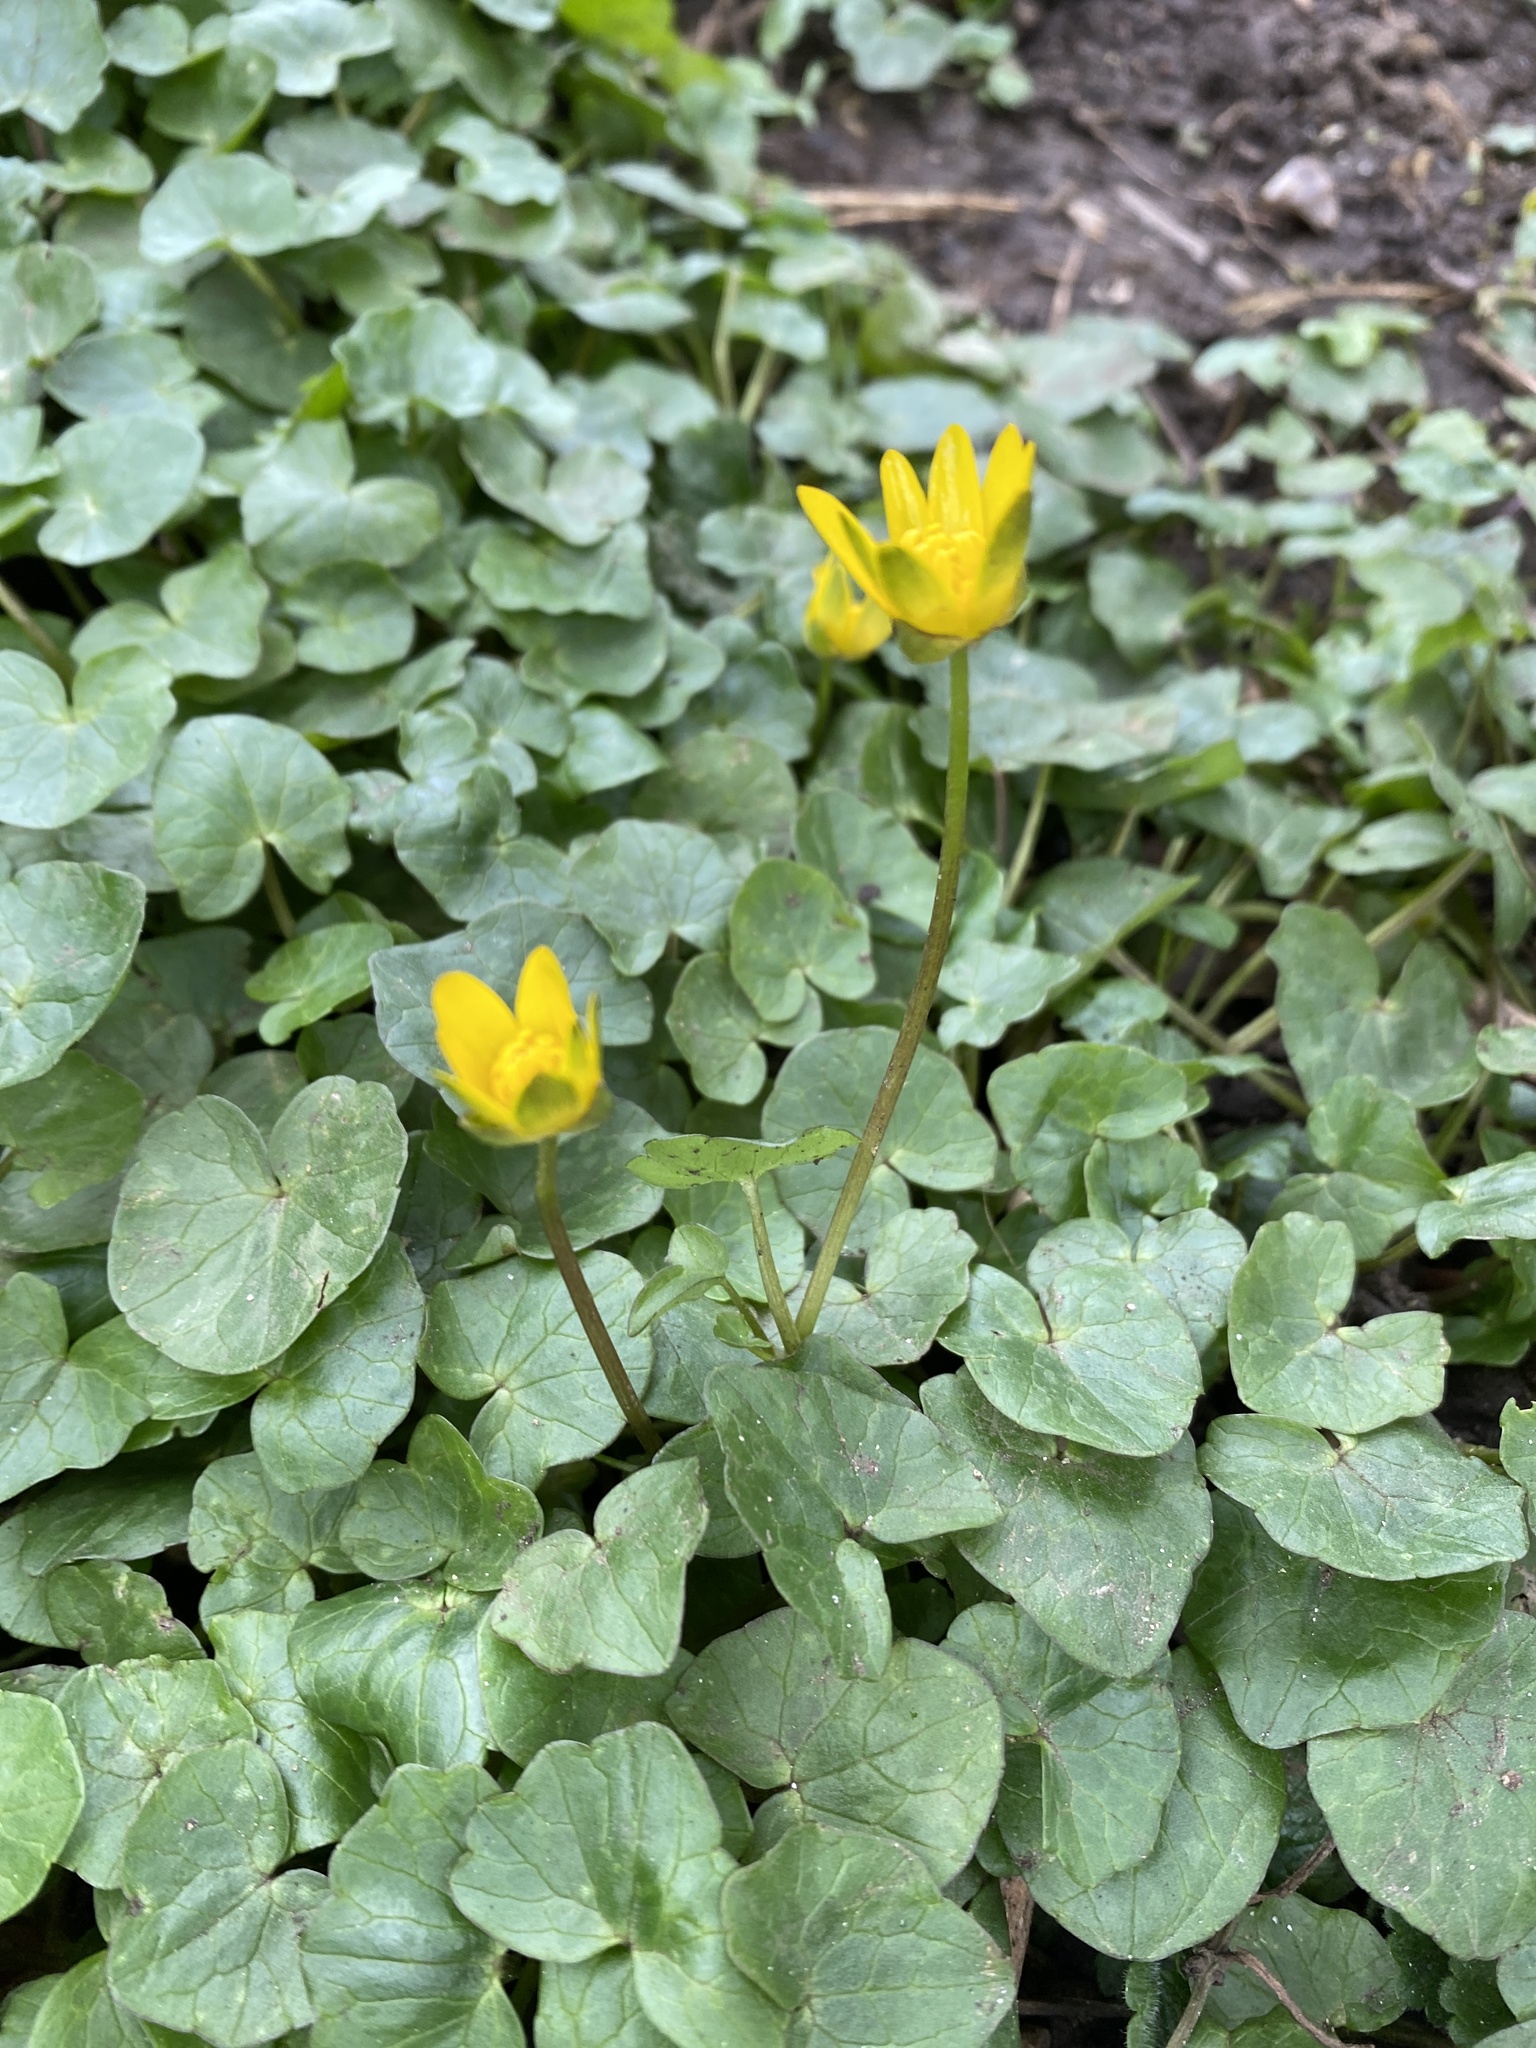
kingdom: Plantae
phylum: Tracheophyta
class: Magnoliopsida
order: Ranunculales
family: Ranunculaceae
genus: Ficaria
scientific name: Ficaria verna
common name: Lesser celandine
